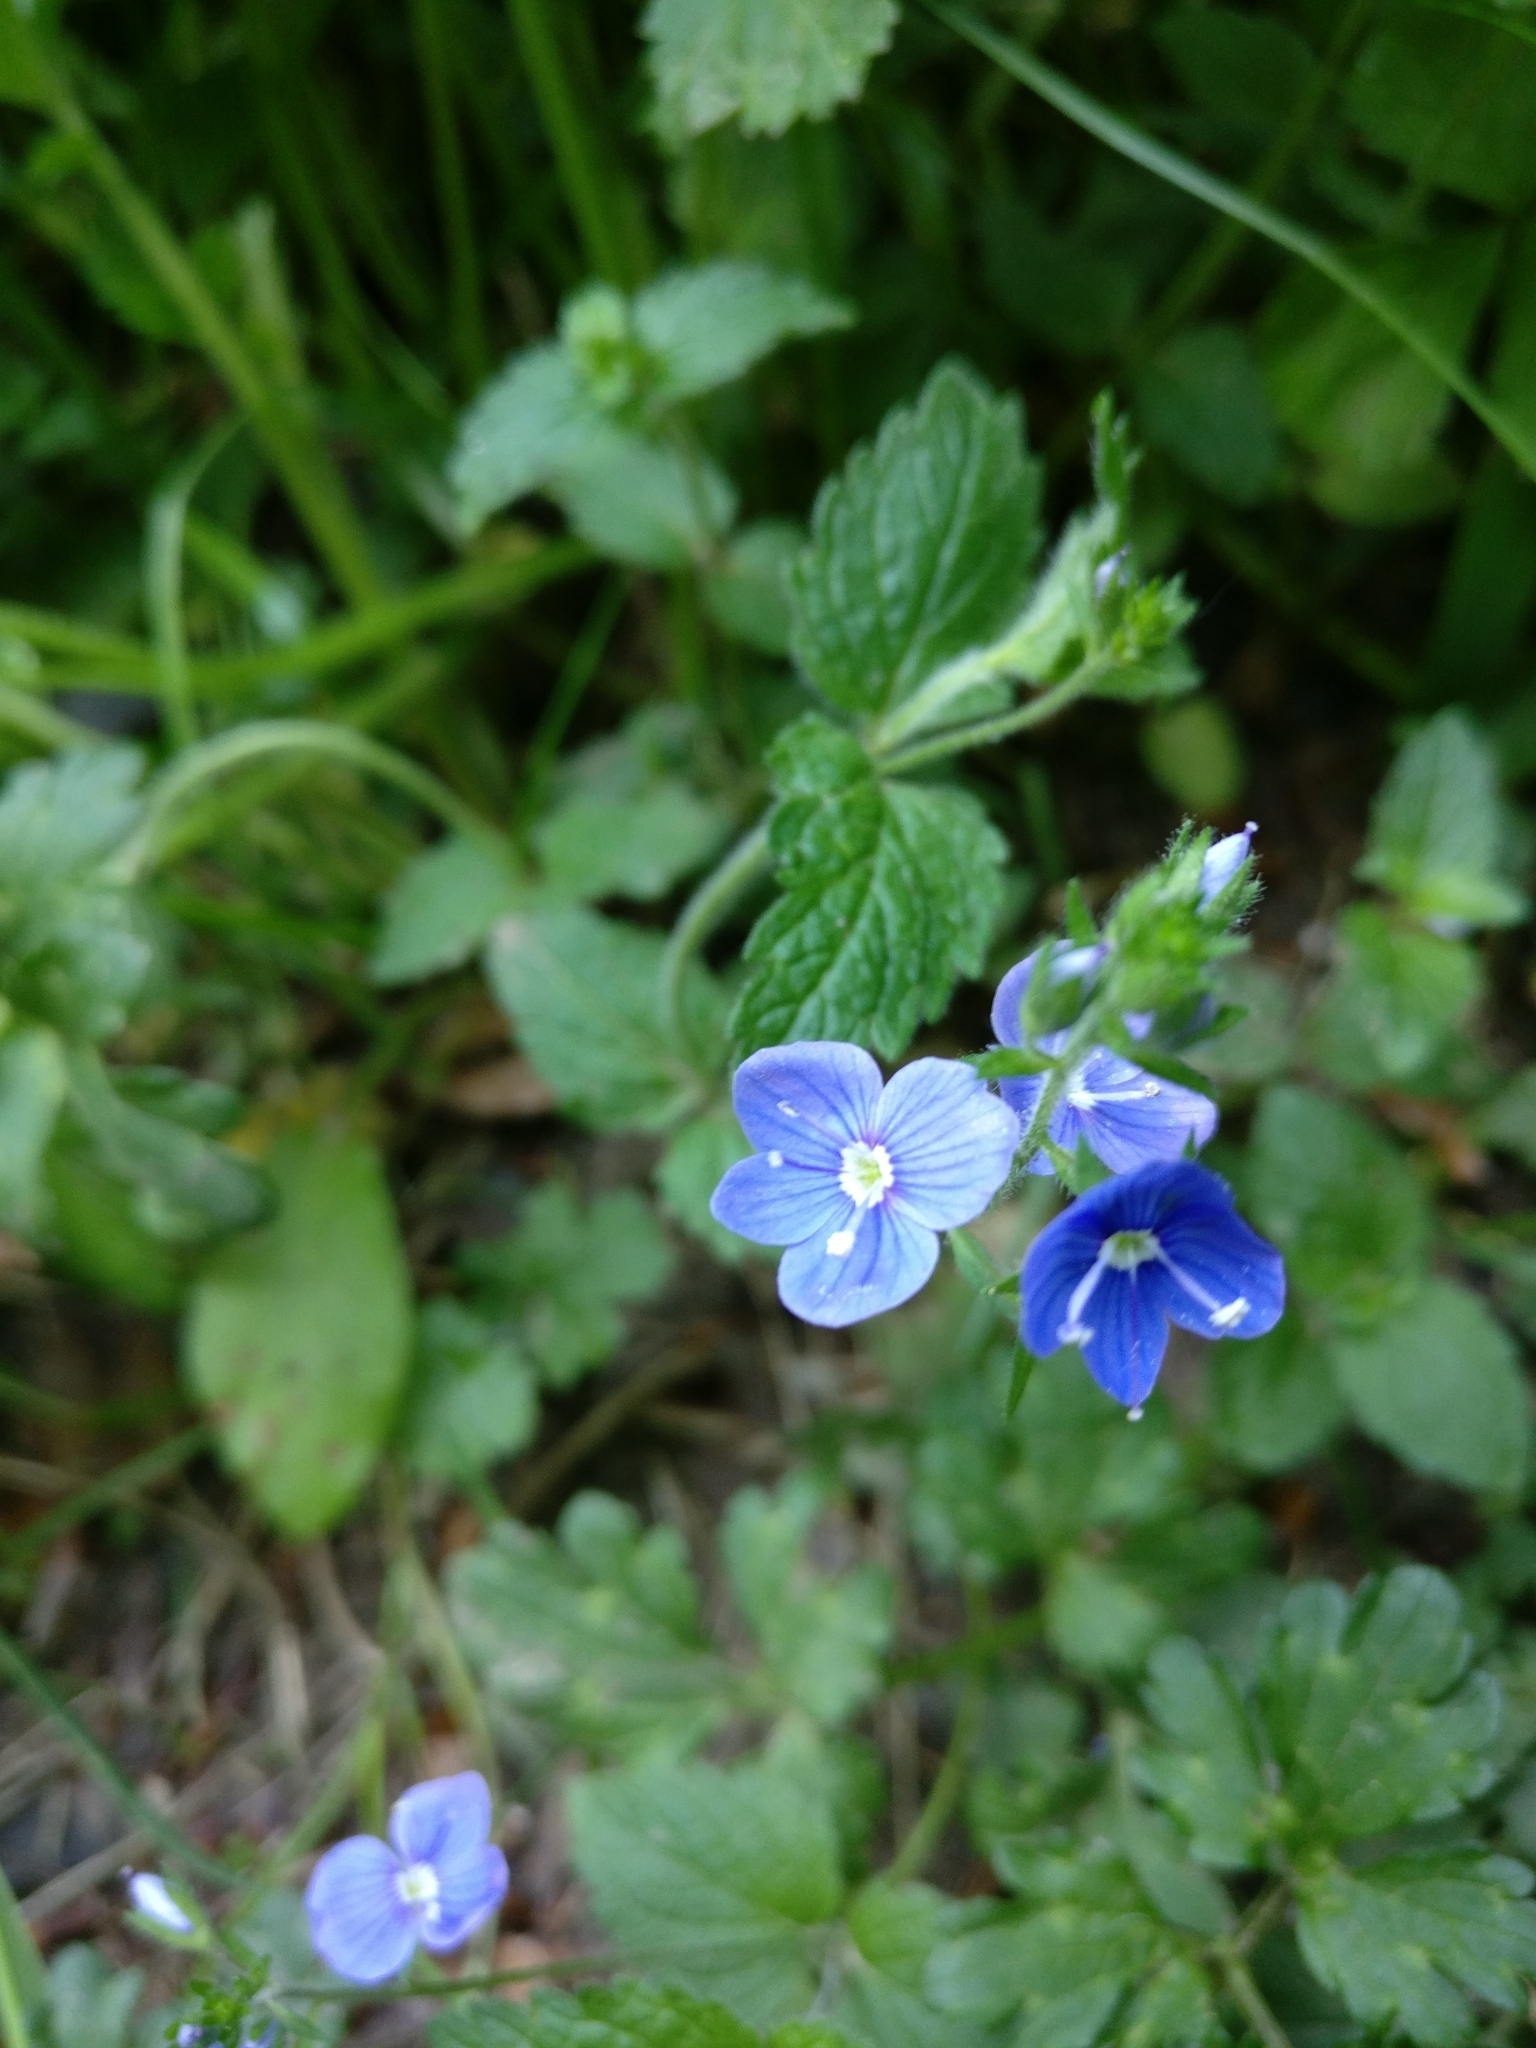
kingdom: Plantae
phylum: Tracheophyta
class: Magnoliopsida
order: Lamiales
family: Plantaginaceae
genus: Veronica
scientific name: Veronica chamaedrys
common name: Germander speedwell
